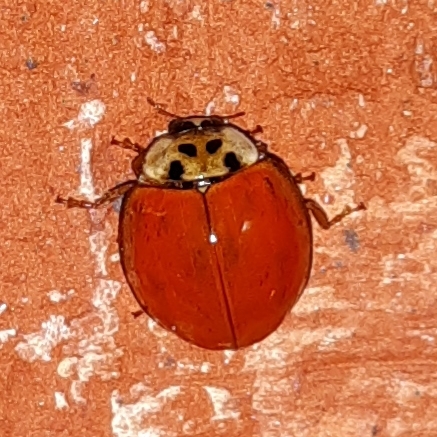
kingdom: Animalia
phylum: Arthropoda
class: Insecta
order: Coleoptera
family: Coccinellidae
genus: Harmonia
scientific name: Harmonia axyridis
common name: Harlequin ladybird
